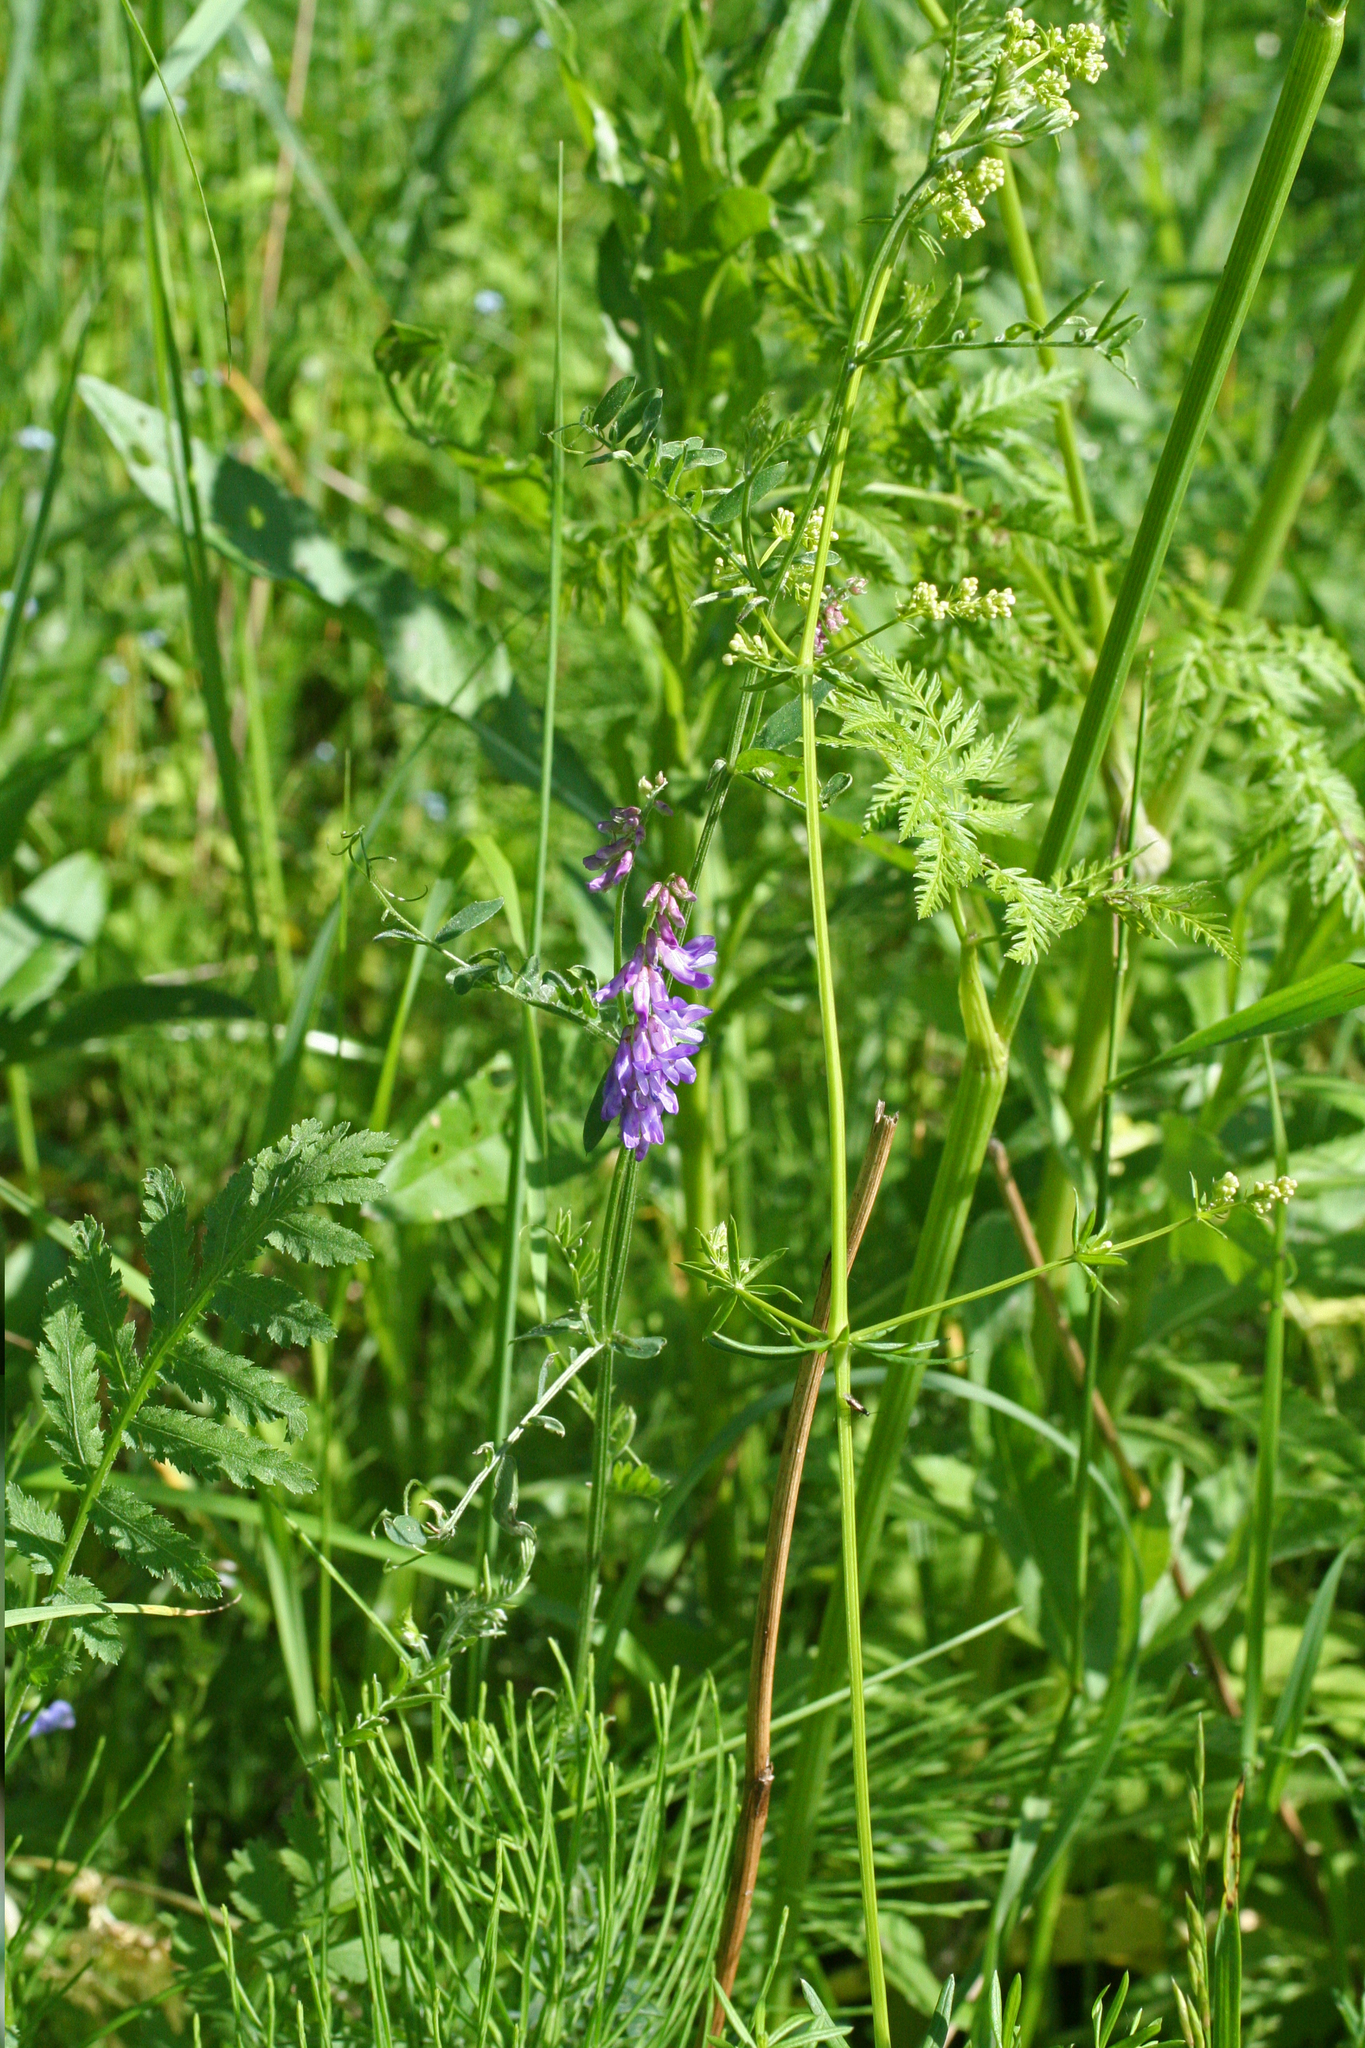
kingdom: Plantae
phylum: Tracheophyta
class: Magnoliopsida
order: Fabales
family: Fabaceae
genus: Vicia
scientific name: Vicia cracca
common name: Bird vetch
